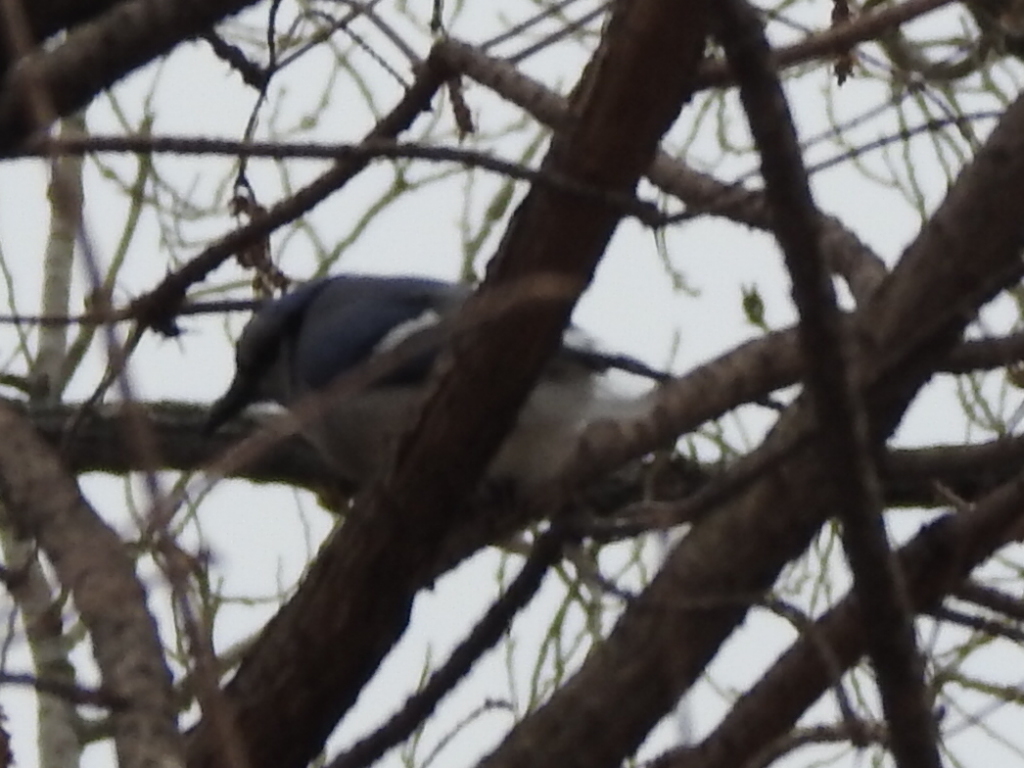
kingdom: Animalia
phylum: Chordata
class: Aves
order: Passeriformes
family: Corvidae
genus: Cyanocitta
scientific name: Cyanocitta cristata
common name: Blue jay
